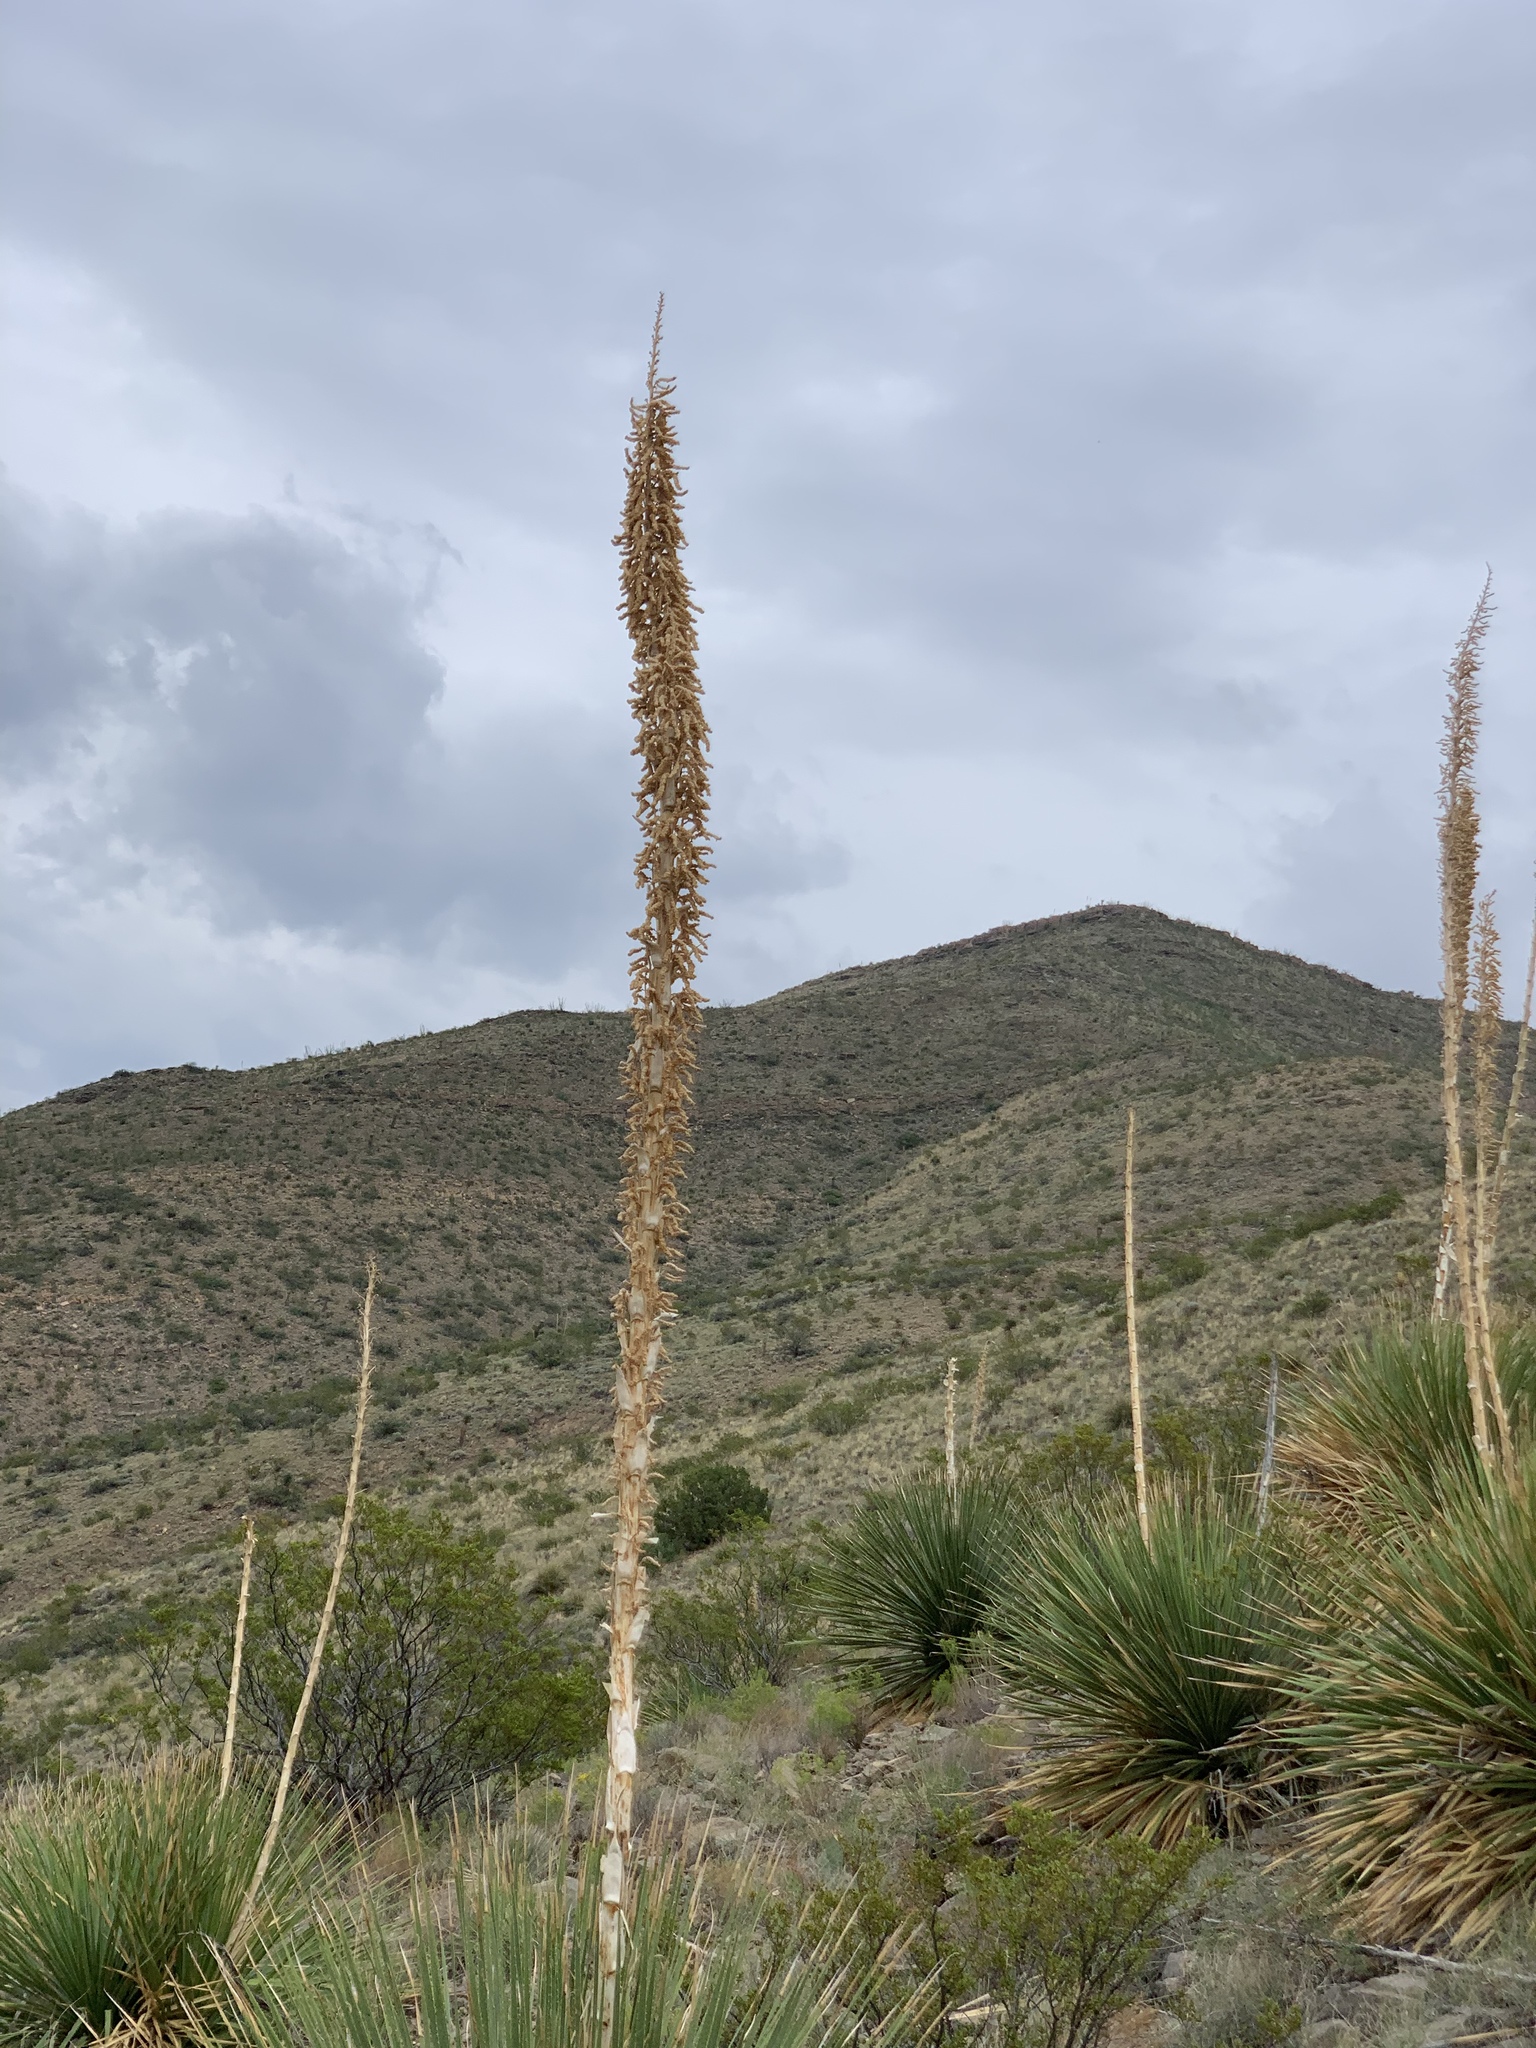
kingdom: Plantae
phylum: Tracheophyta
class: Liliopsida
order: Asparagales
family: Asparagaceae
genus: Dasylirion
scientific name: Dasylirion wheeleri
